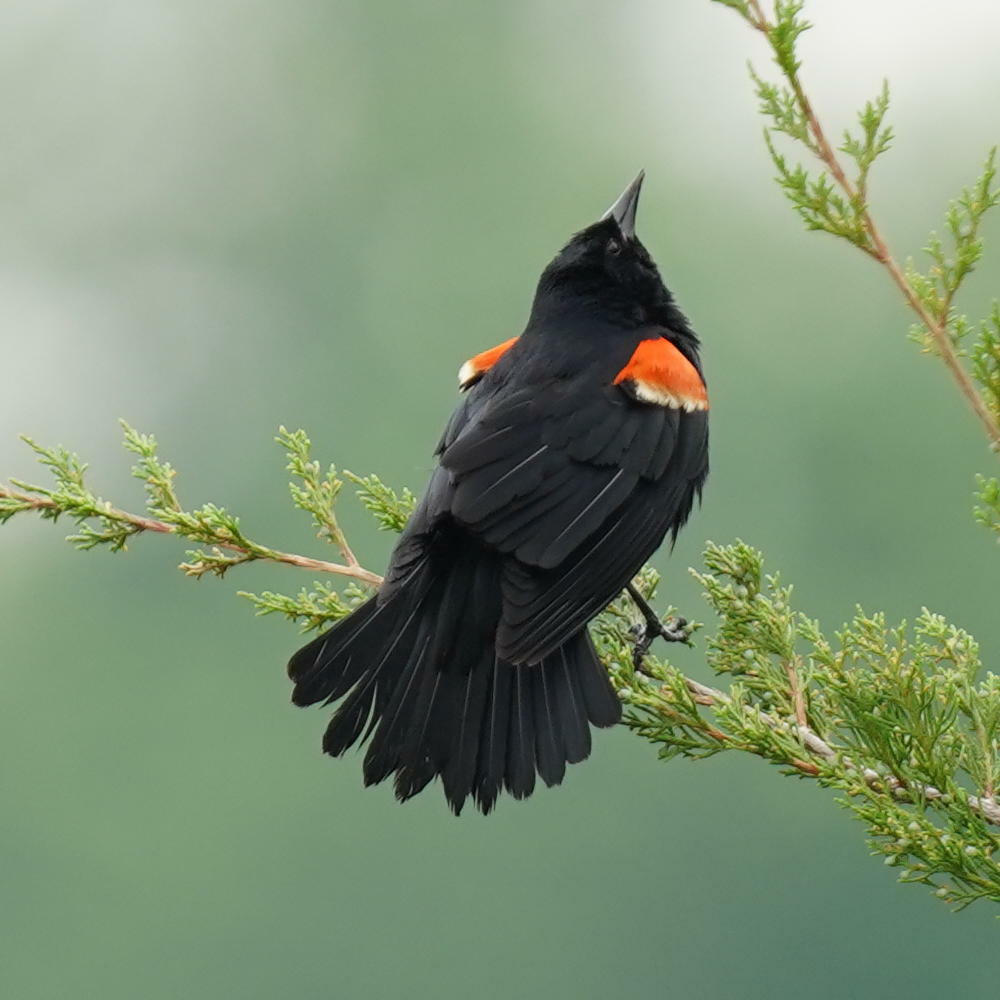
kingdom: Animalia
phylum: Chordata
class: Aves
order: Passeriformes
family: Icteridae
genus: Agelaius
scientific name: Agelaius phoeniceus
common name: Red-winged blackbird
